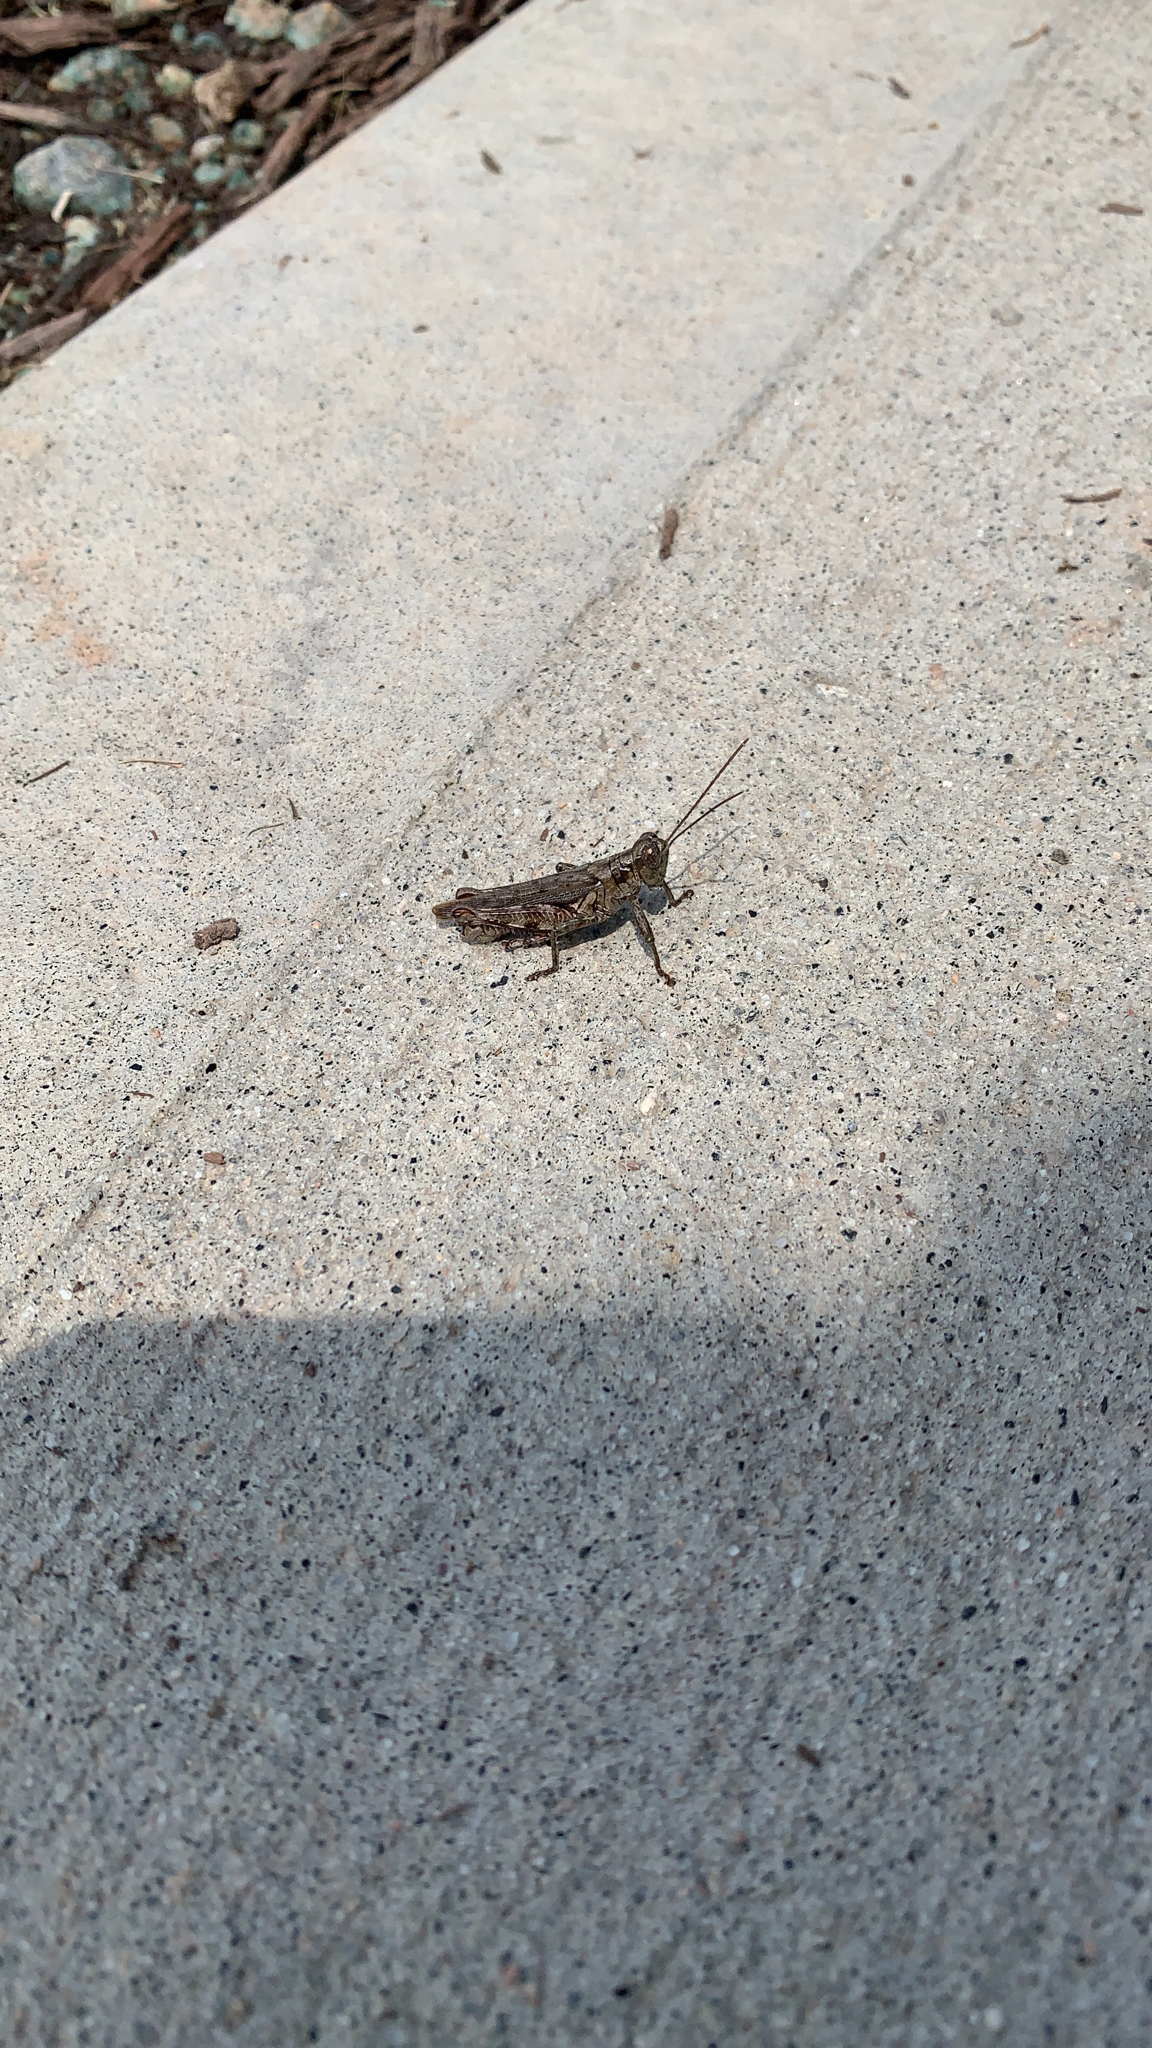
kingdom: Animalia
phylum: Arthropoda
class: Insecta
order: Orthoptera
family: Acrididae
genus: Melanoplus
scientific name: Melanoplus punctulatus
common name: Pine-tree spur-throat grasshopper
